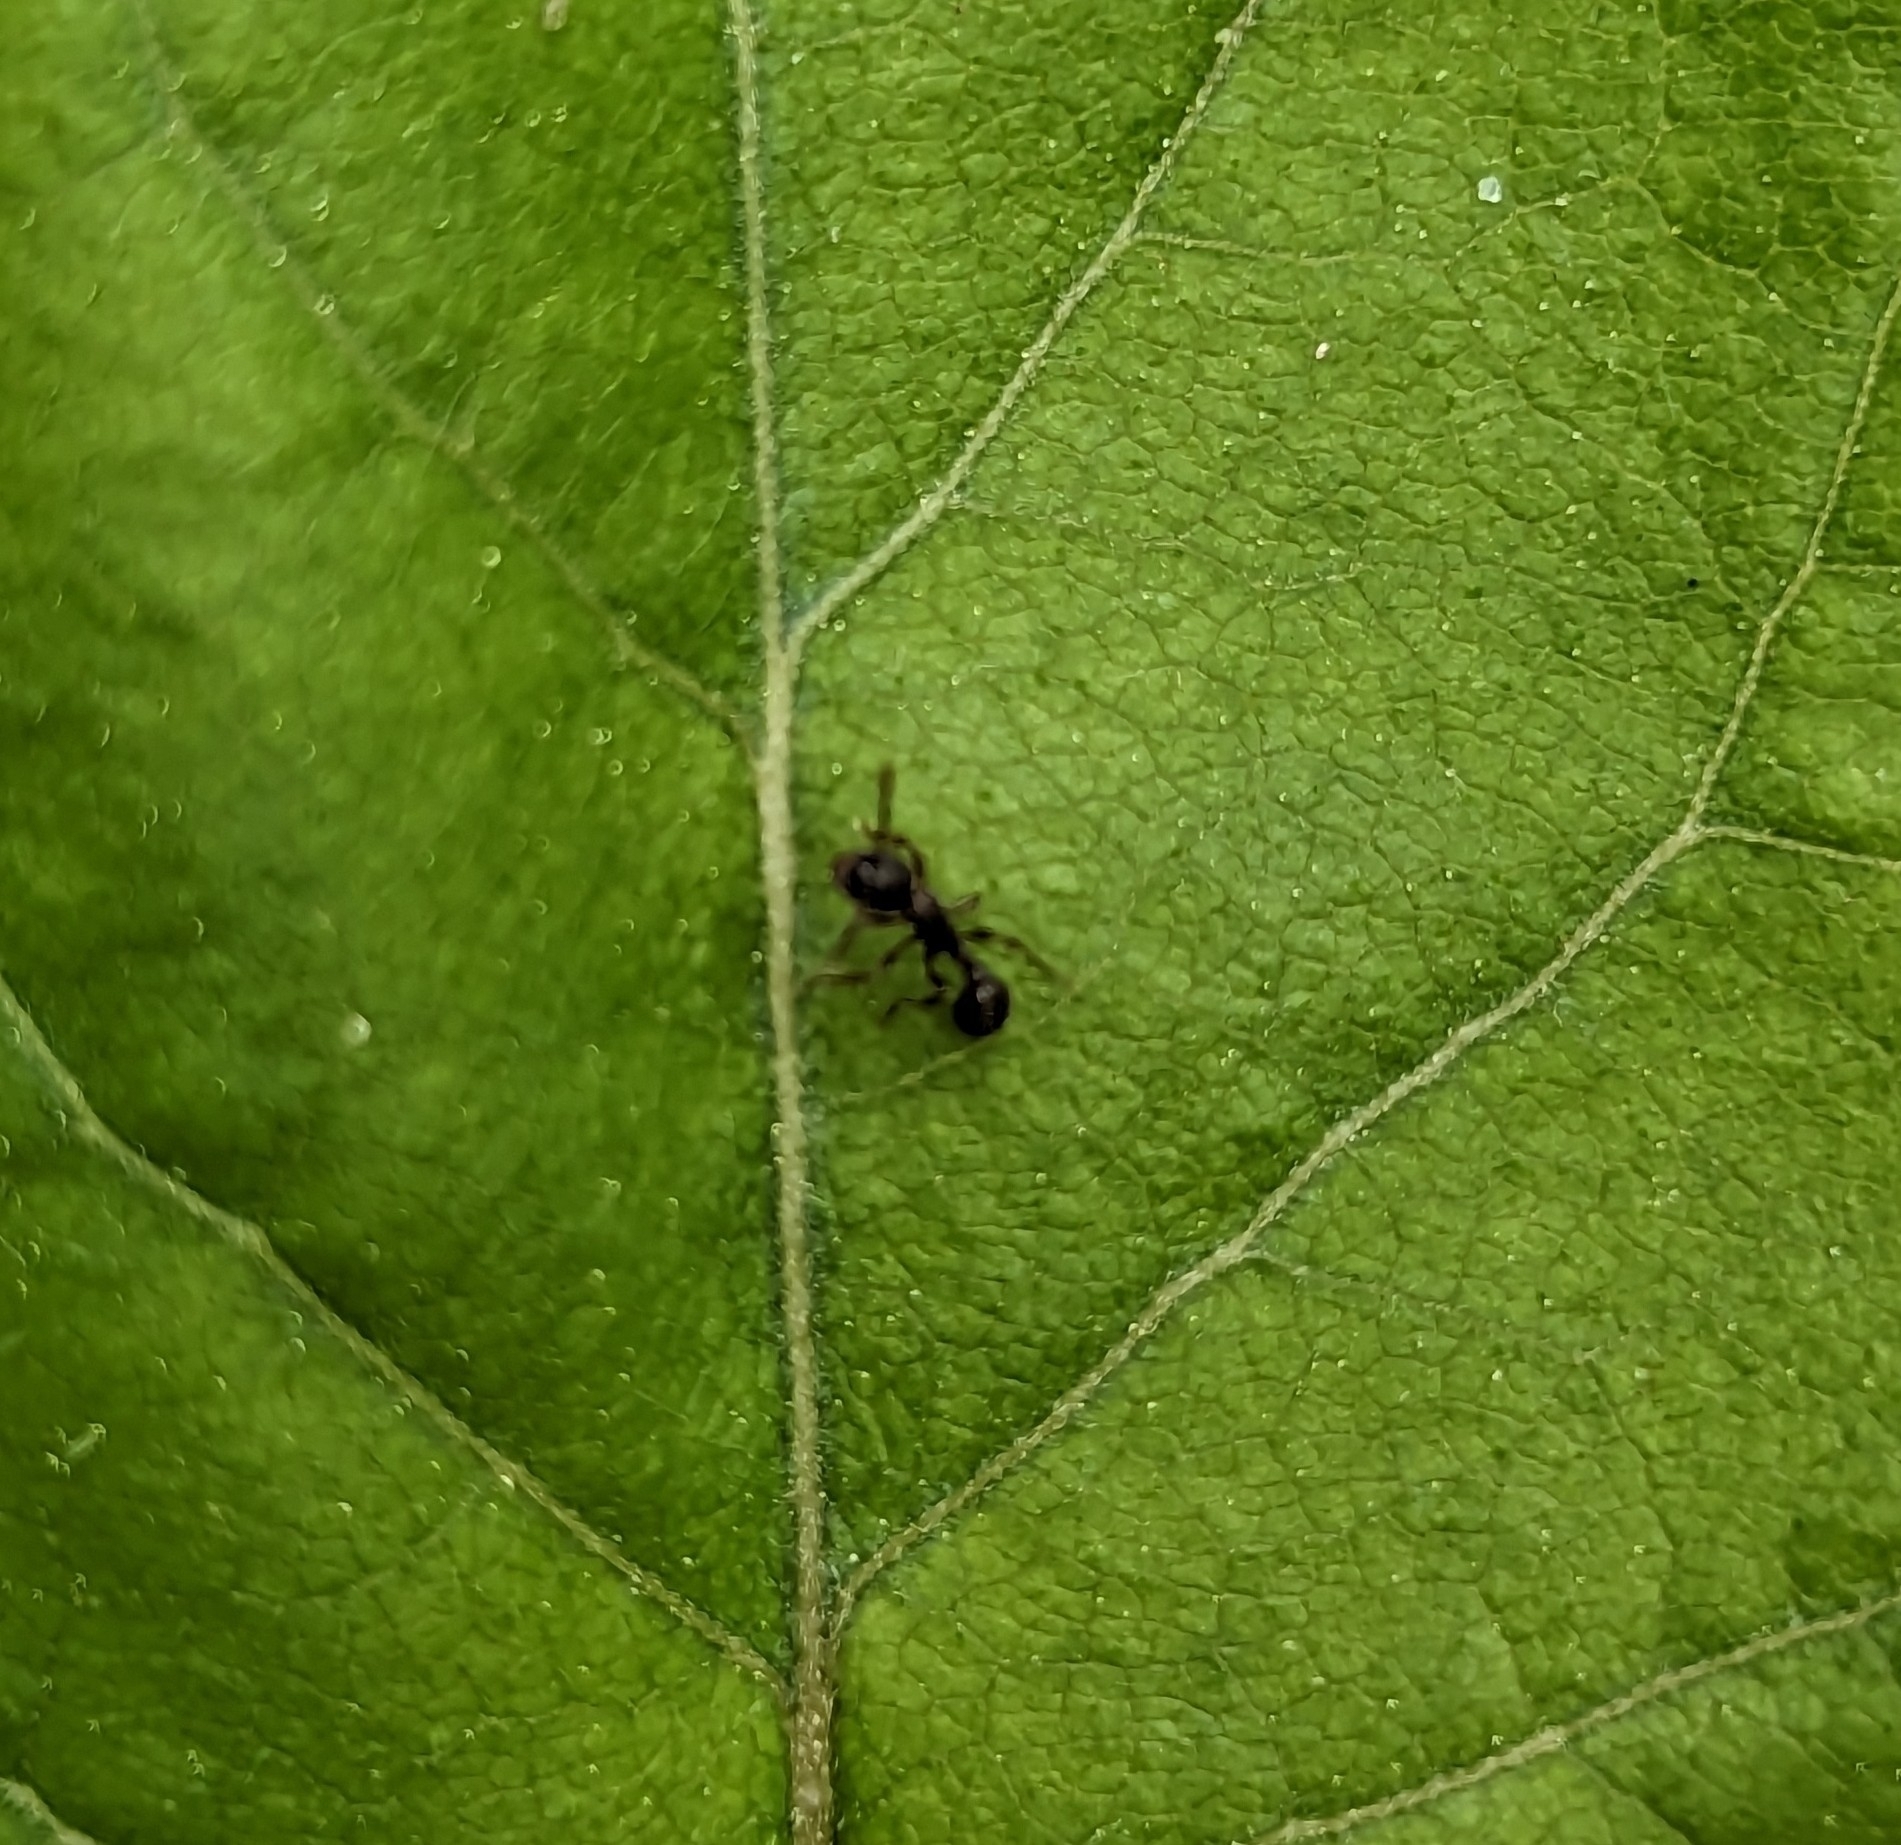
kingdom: Animalia
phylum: Arthropoda
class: Insecta
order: Hymenoptera
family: Formicidae
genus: Myrmica
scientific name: Myrmica
